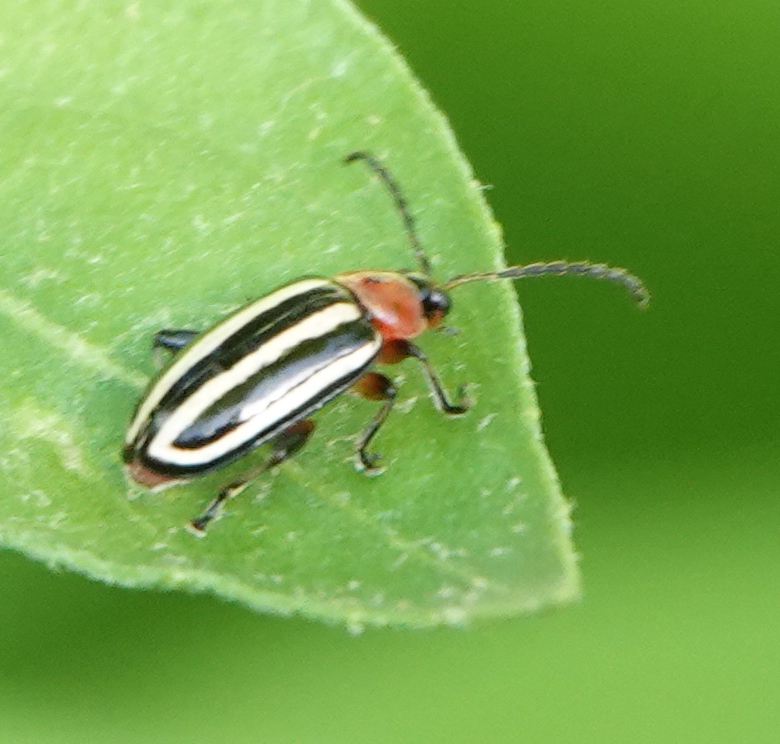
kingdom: Animalia
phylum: Arthropoda
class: Insecta
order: Coleoptera
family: Chrysomelidae
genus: Disonycha
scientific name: Disonycha glabrata
